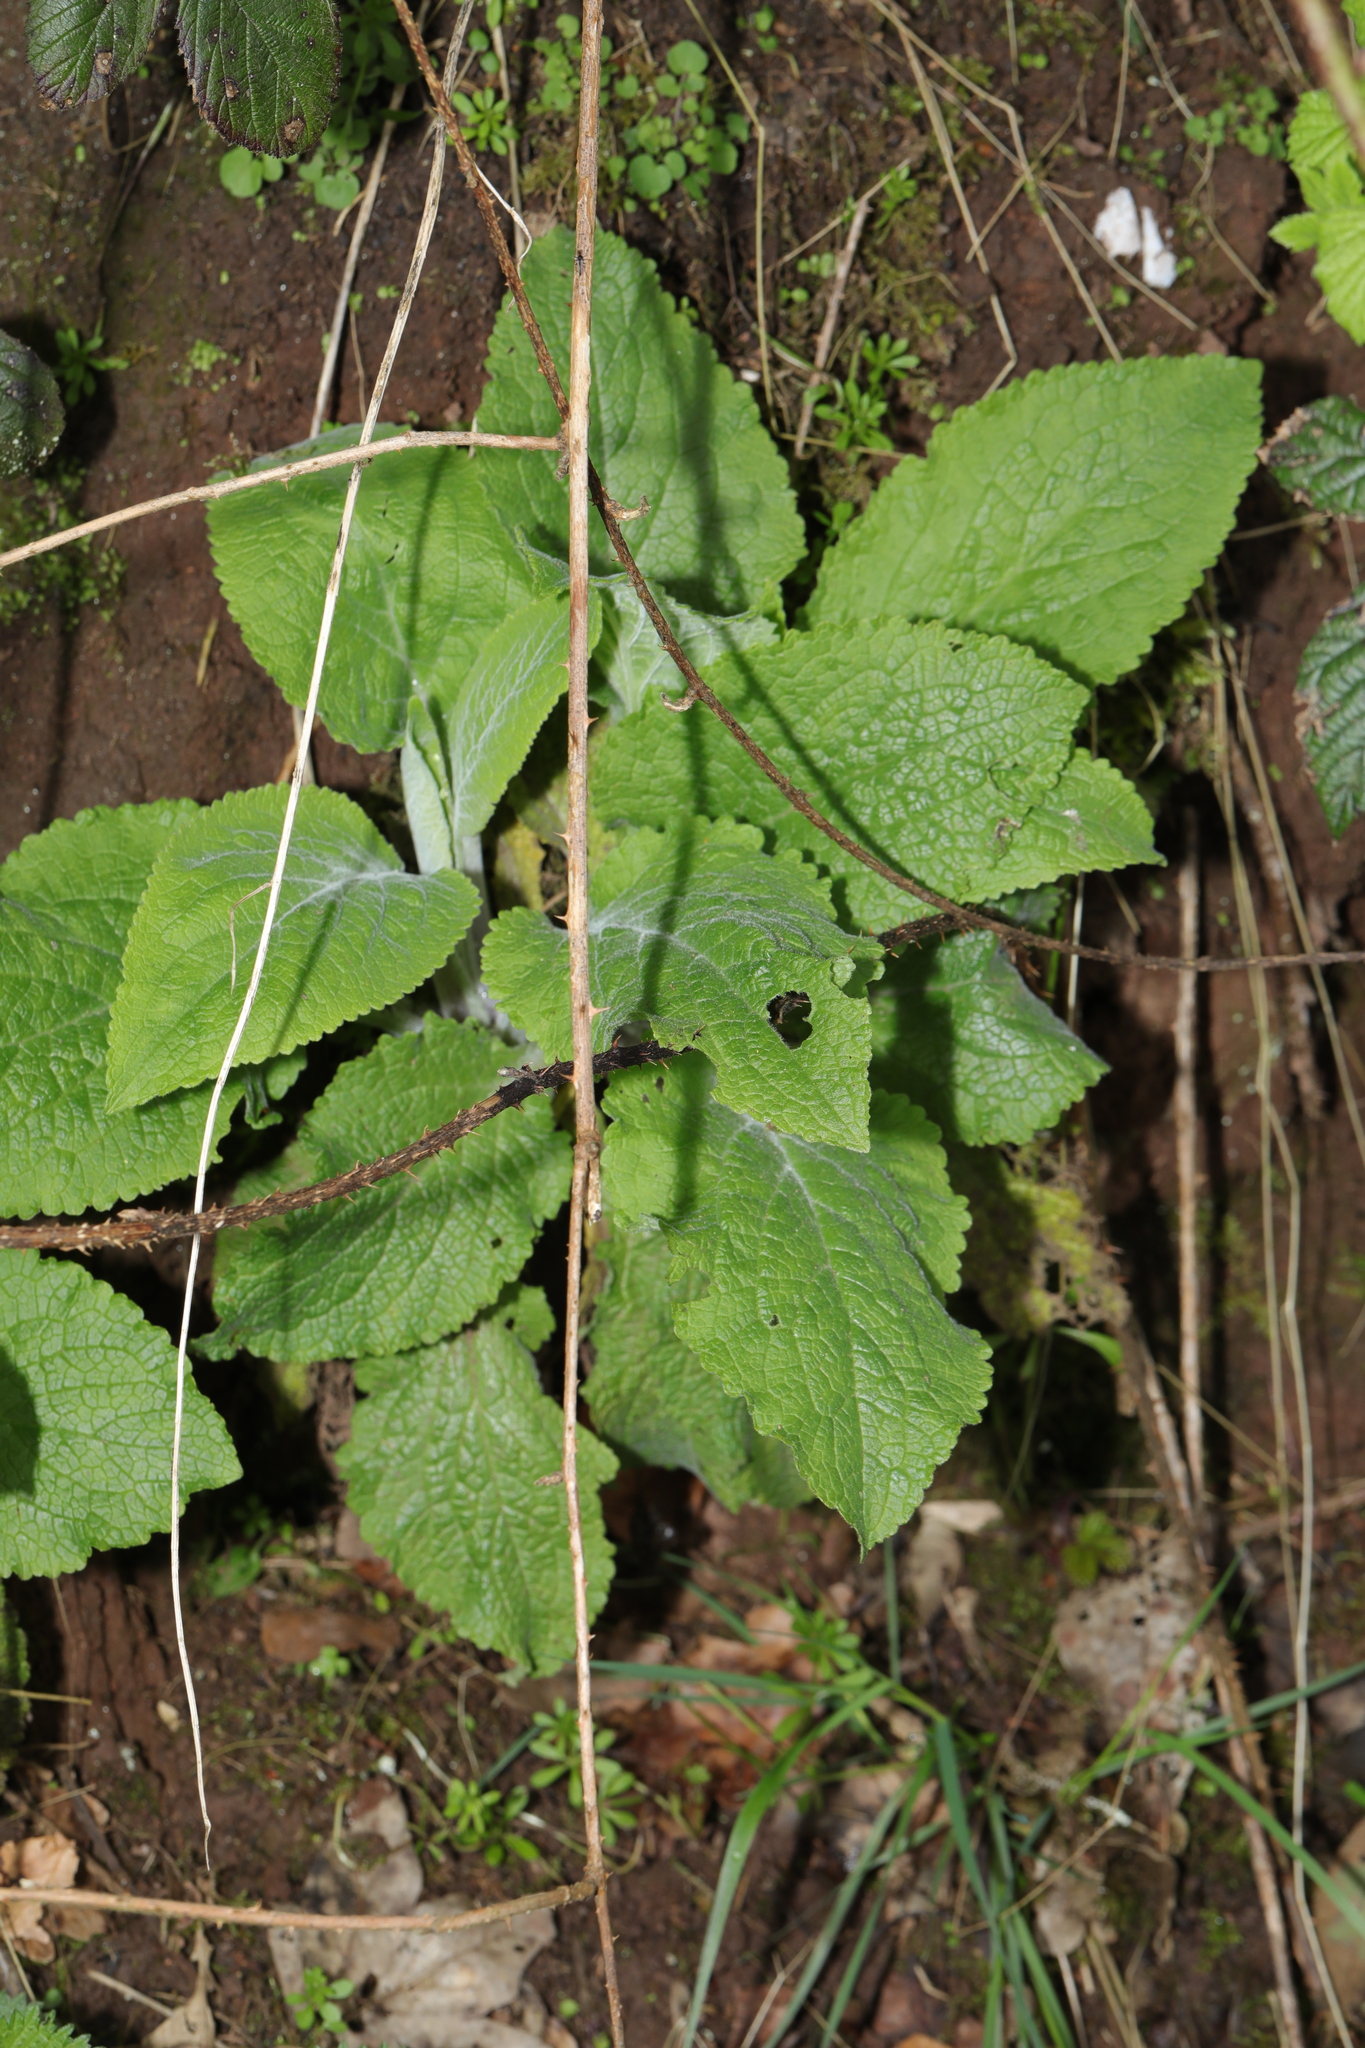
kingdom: Plantae
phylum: Tracheophyta
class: Magnoliopsida
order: Lamiales
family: Plantaginaceae
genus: Digitalis
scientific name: Digitalis purpurea
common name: Foxglove
